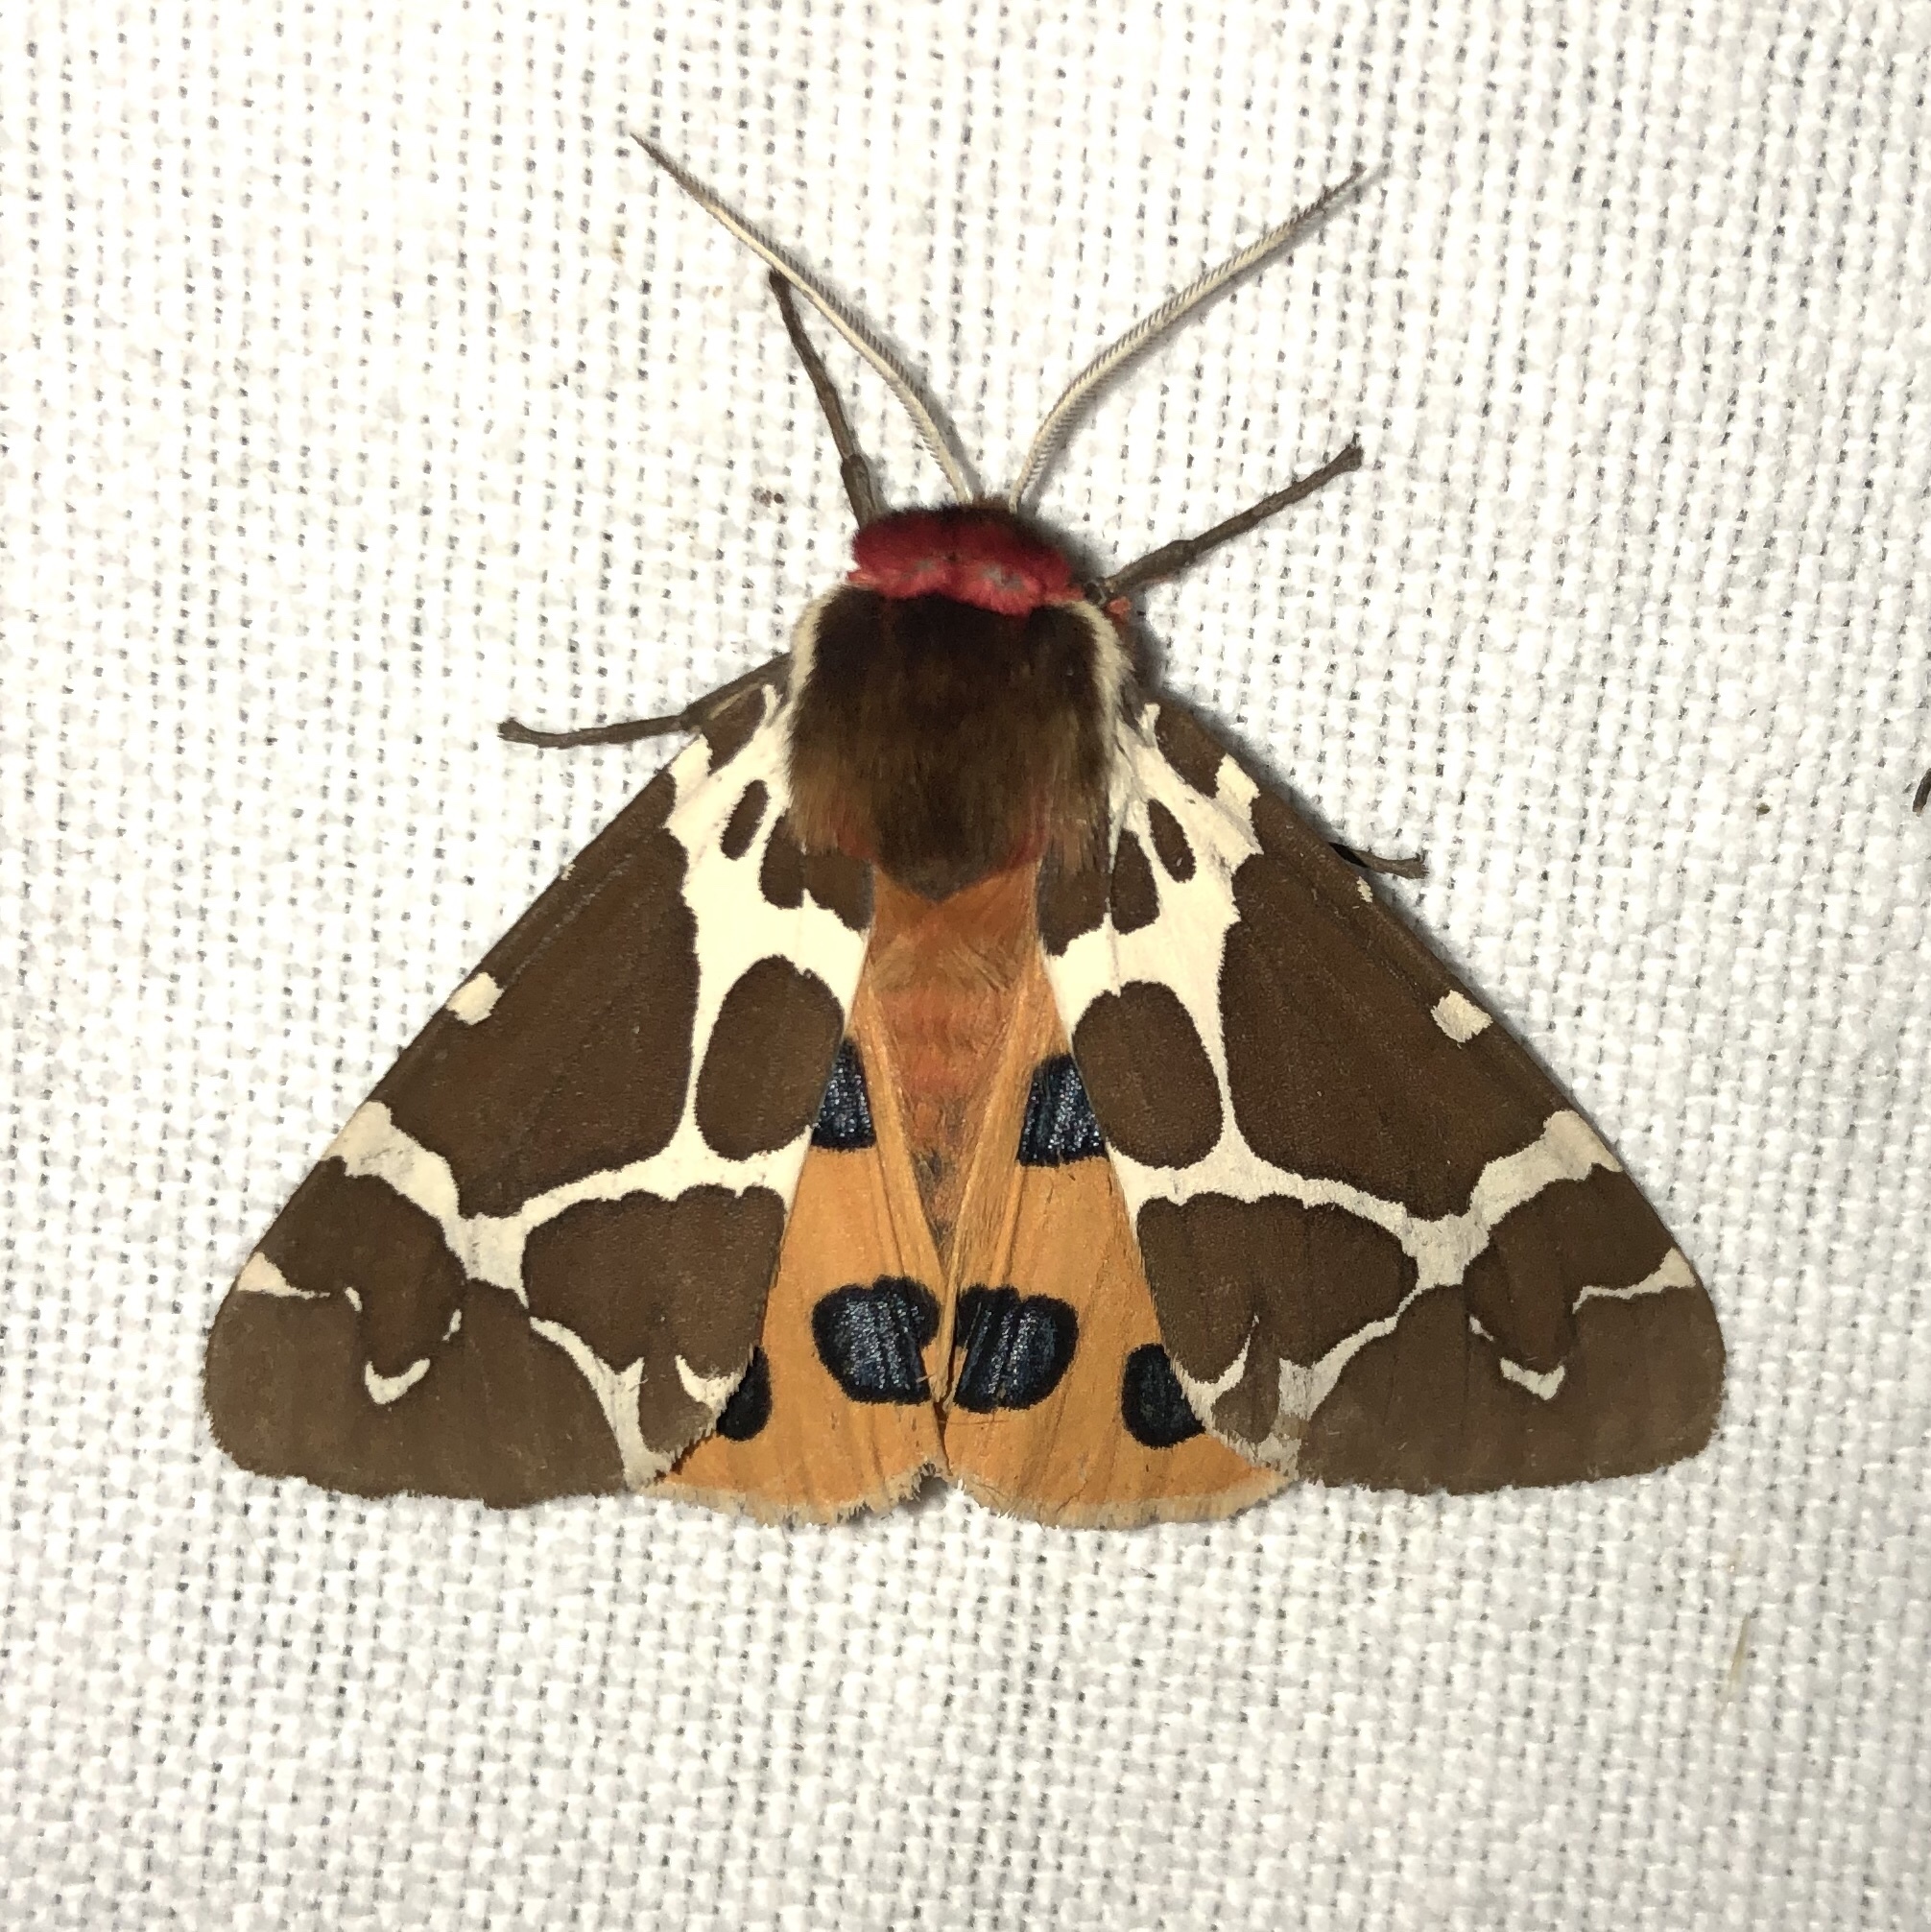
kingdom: Animalia
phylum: Arthropoda
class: Insecta
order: Lepidoptera
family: Erebidae
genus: Arctia
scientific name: Arctia caja
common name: Garden tiger
